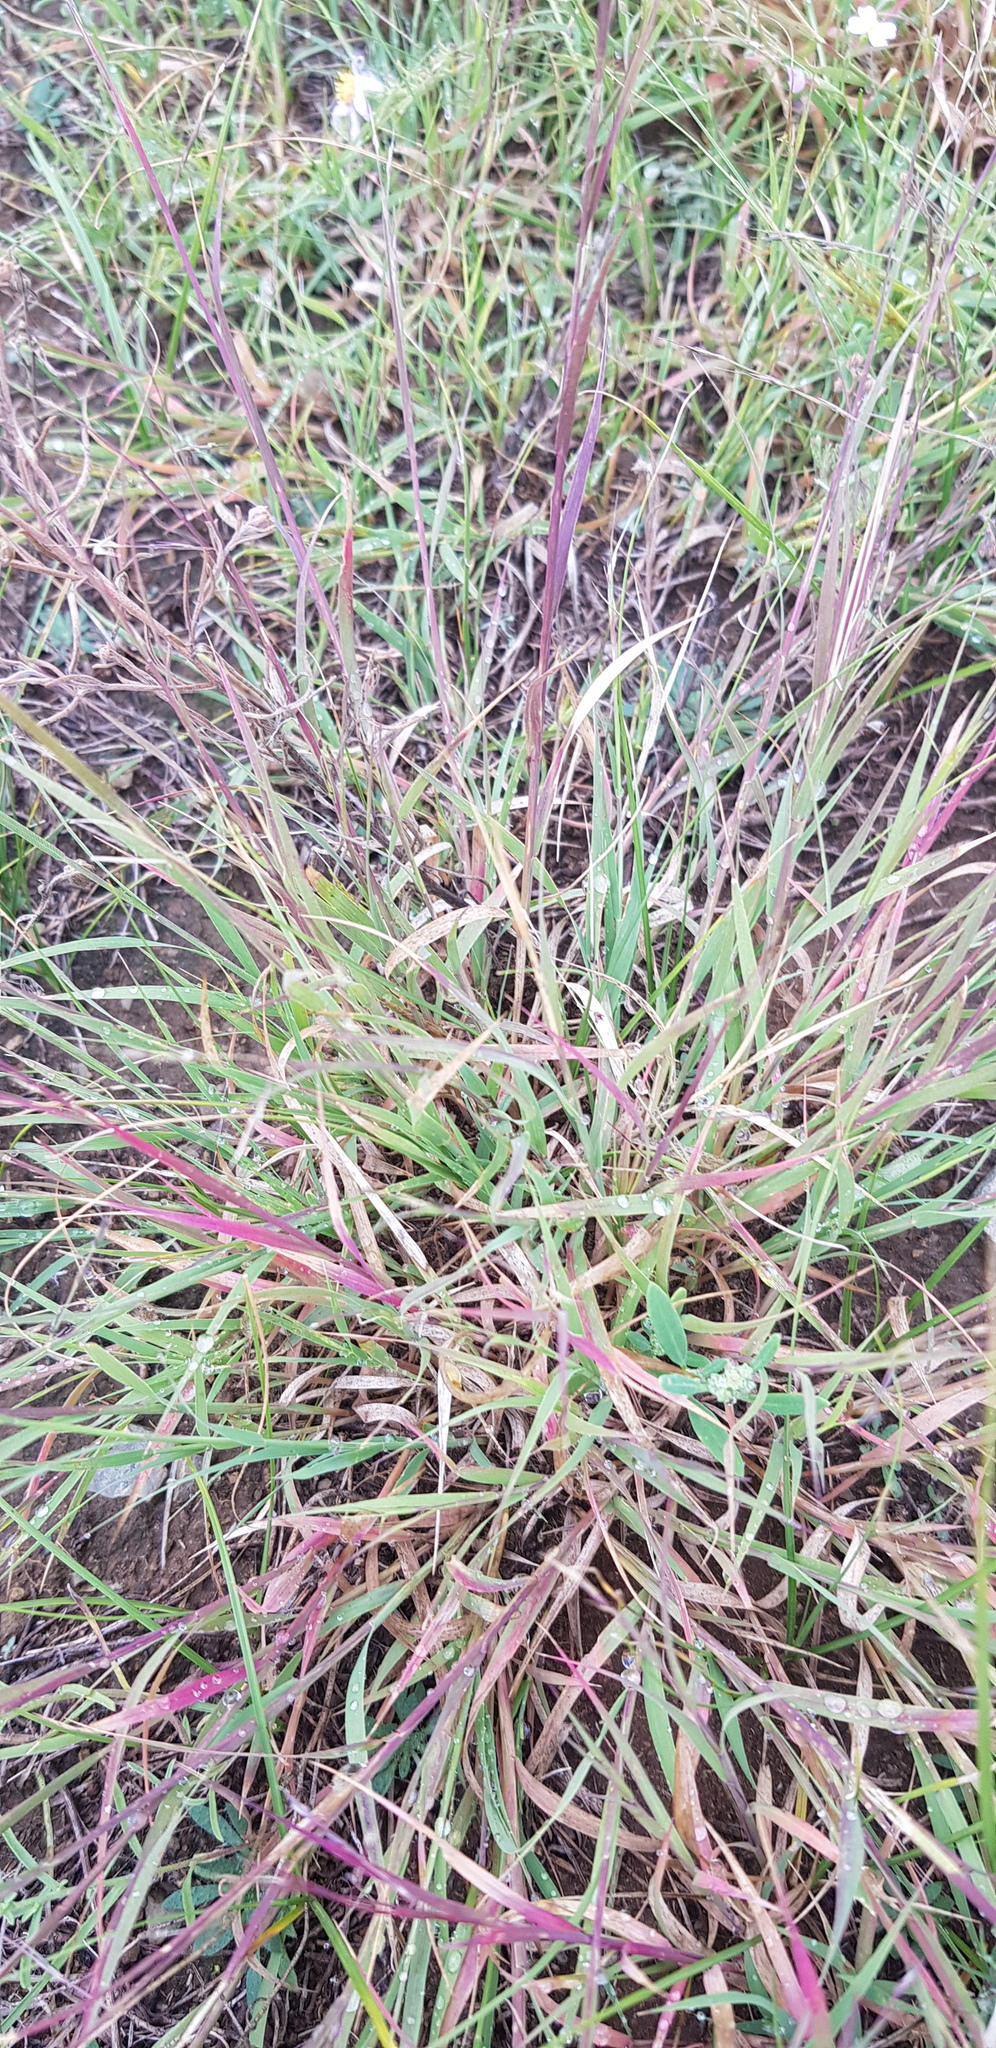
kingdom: Plantae
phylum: Tracheophyta
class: Liliopsida
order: Poales
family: Poaceae
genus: Cleistogenes
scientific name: Cleistogenes squarrosa
